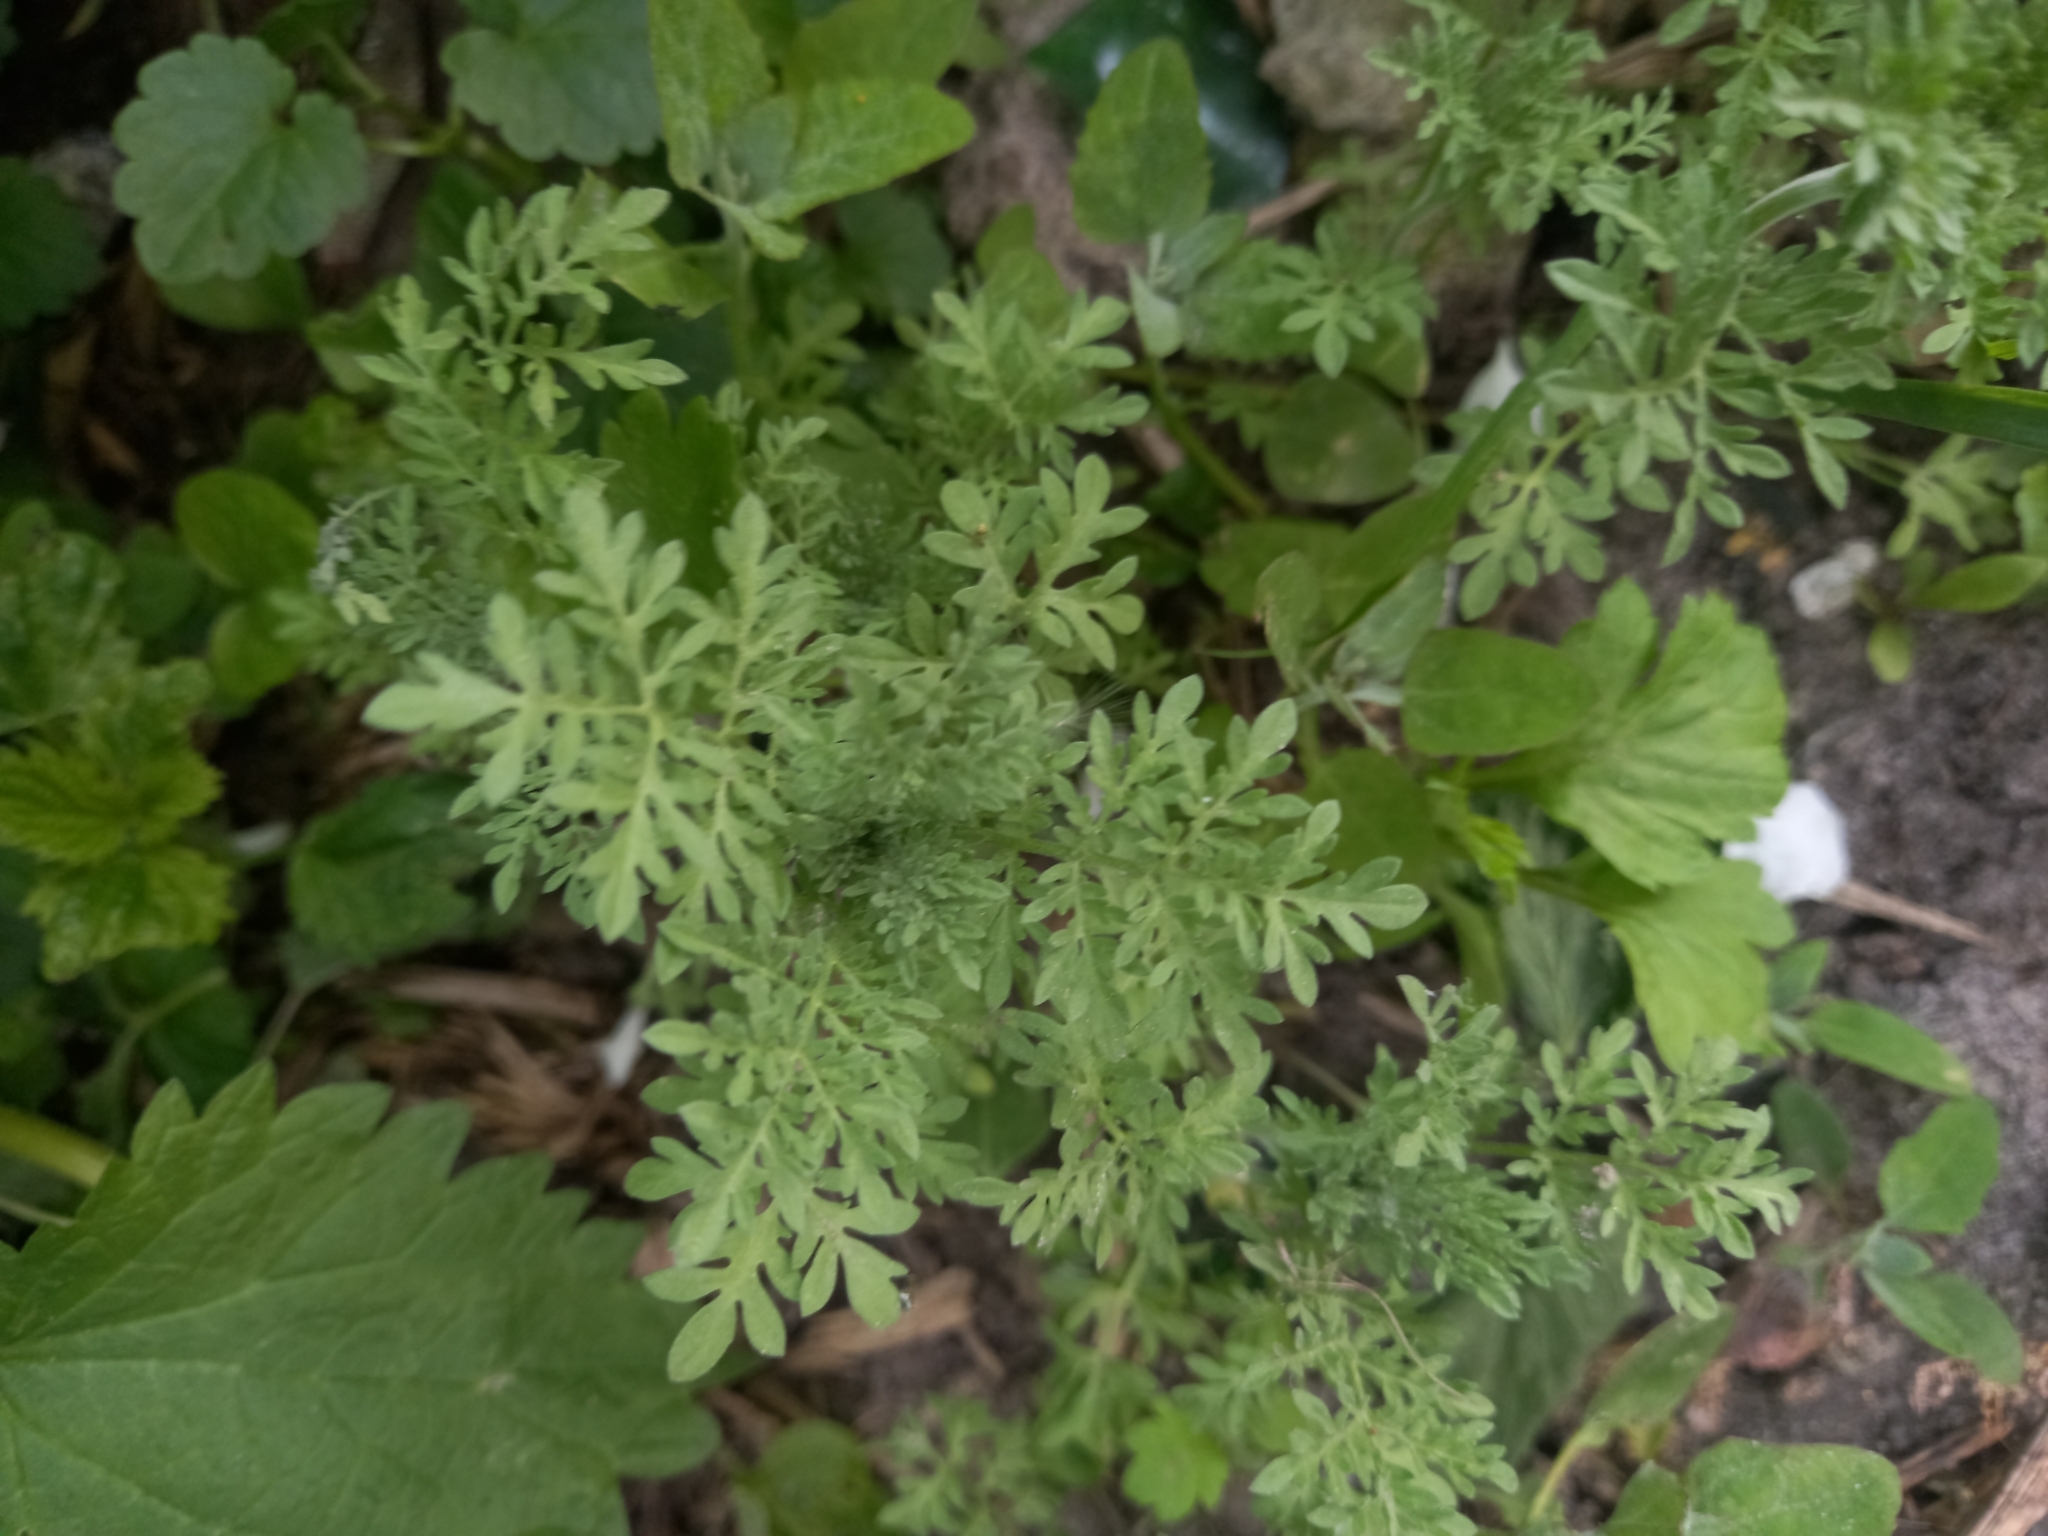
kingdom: Plantae
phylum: Tracheophyta
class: Magnoliopsida
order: Brassicales
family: Brassicaceae
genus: Descurainia
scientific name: Descurainia sophia
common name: Flixweed
